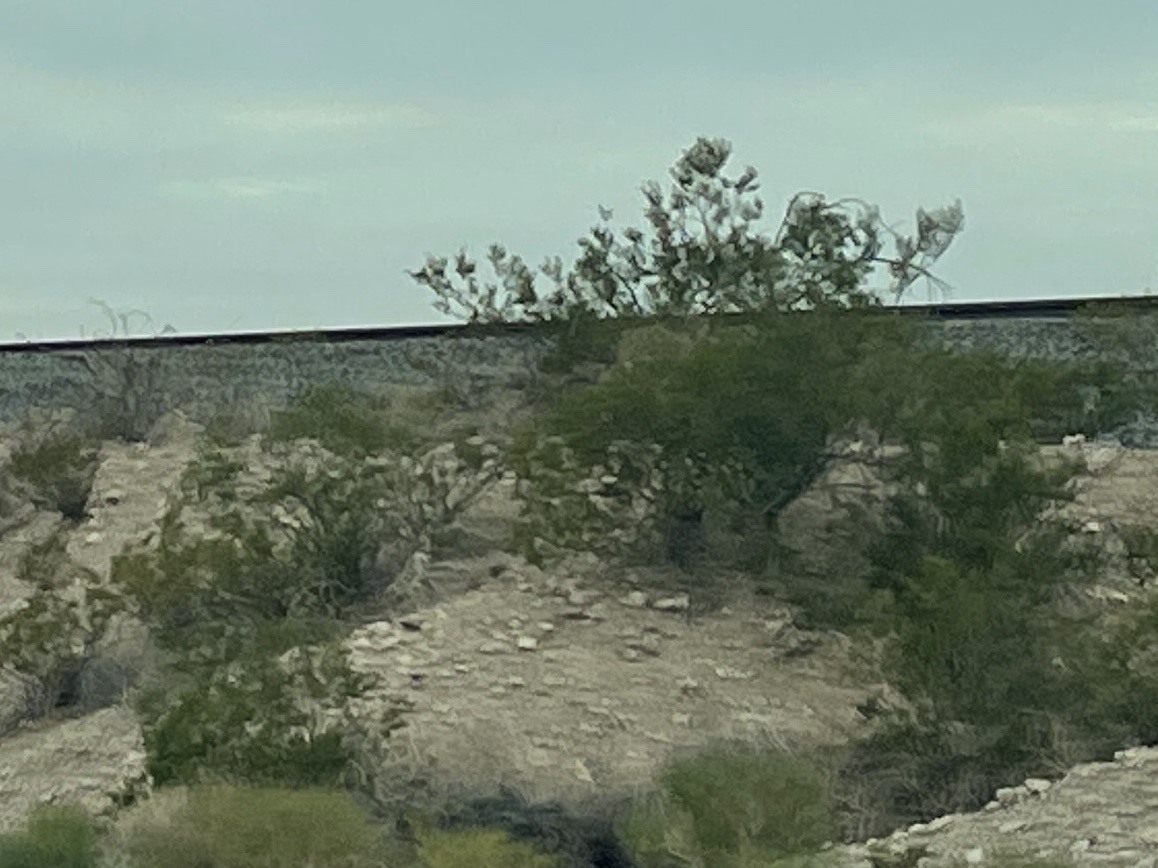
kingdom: Plantae
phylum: Tracheophyta
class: Magnoliopsida
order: Zygophyllales
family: Zygophyllaceae
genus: Larrea
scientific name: Larrea tridentata
